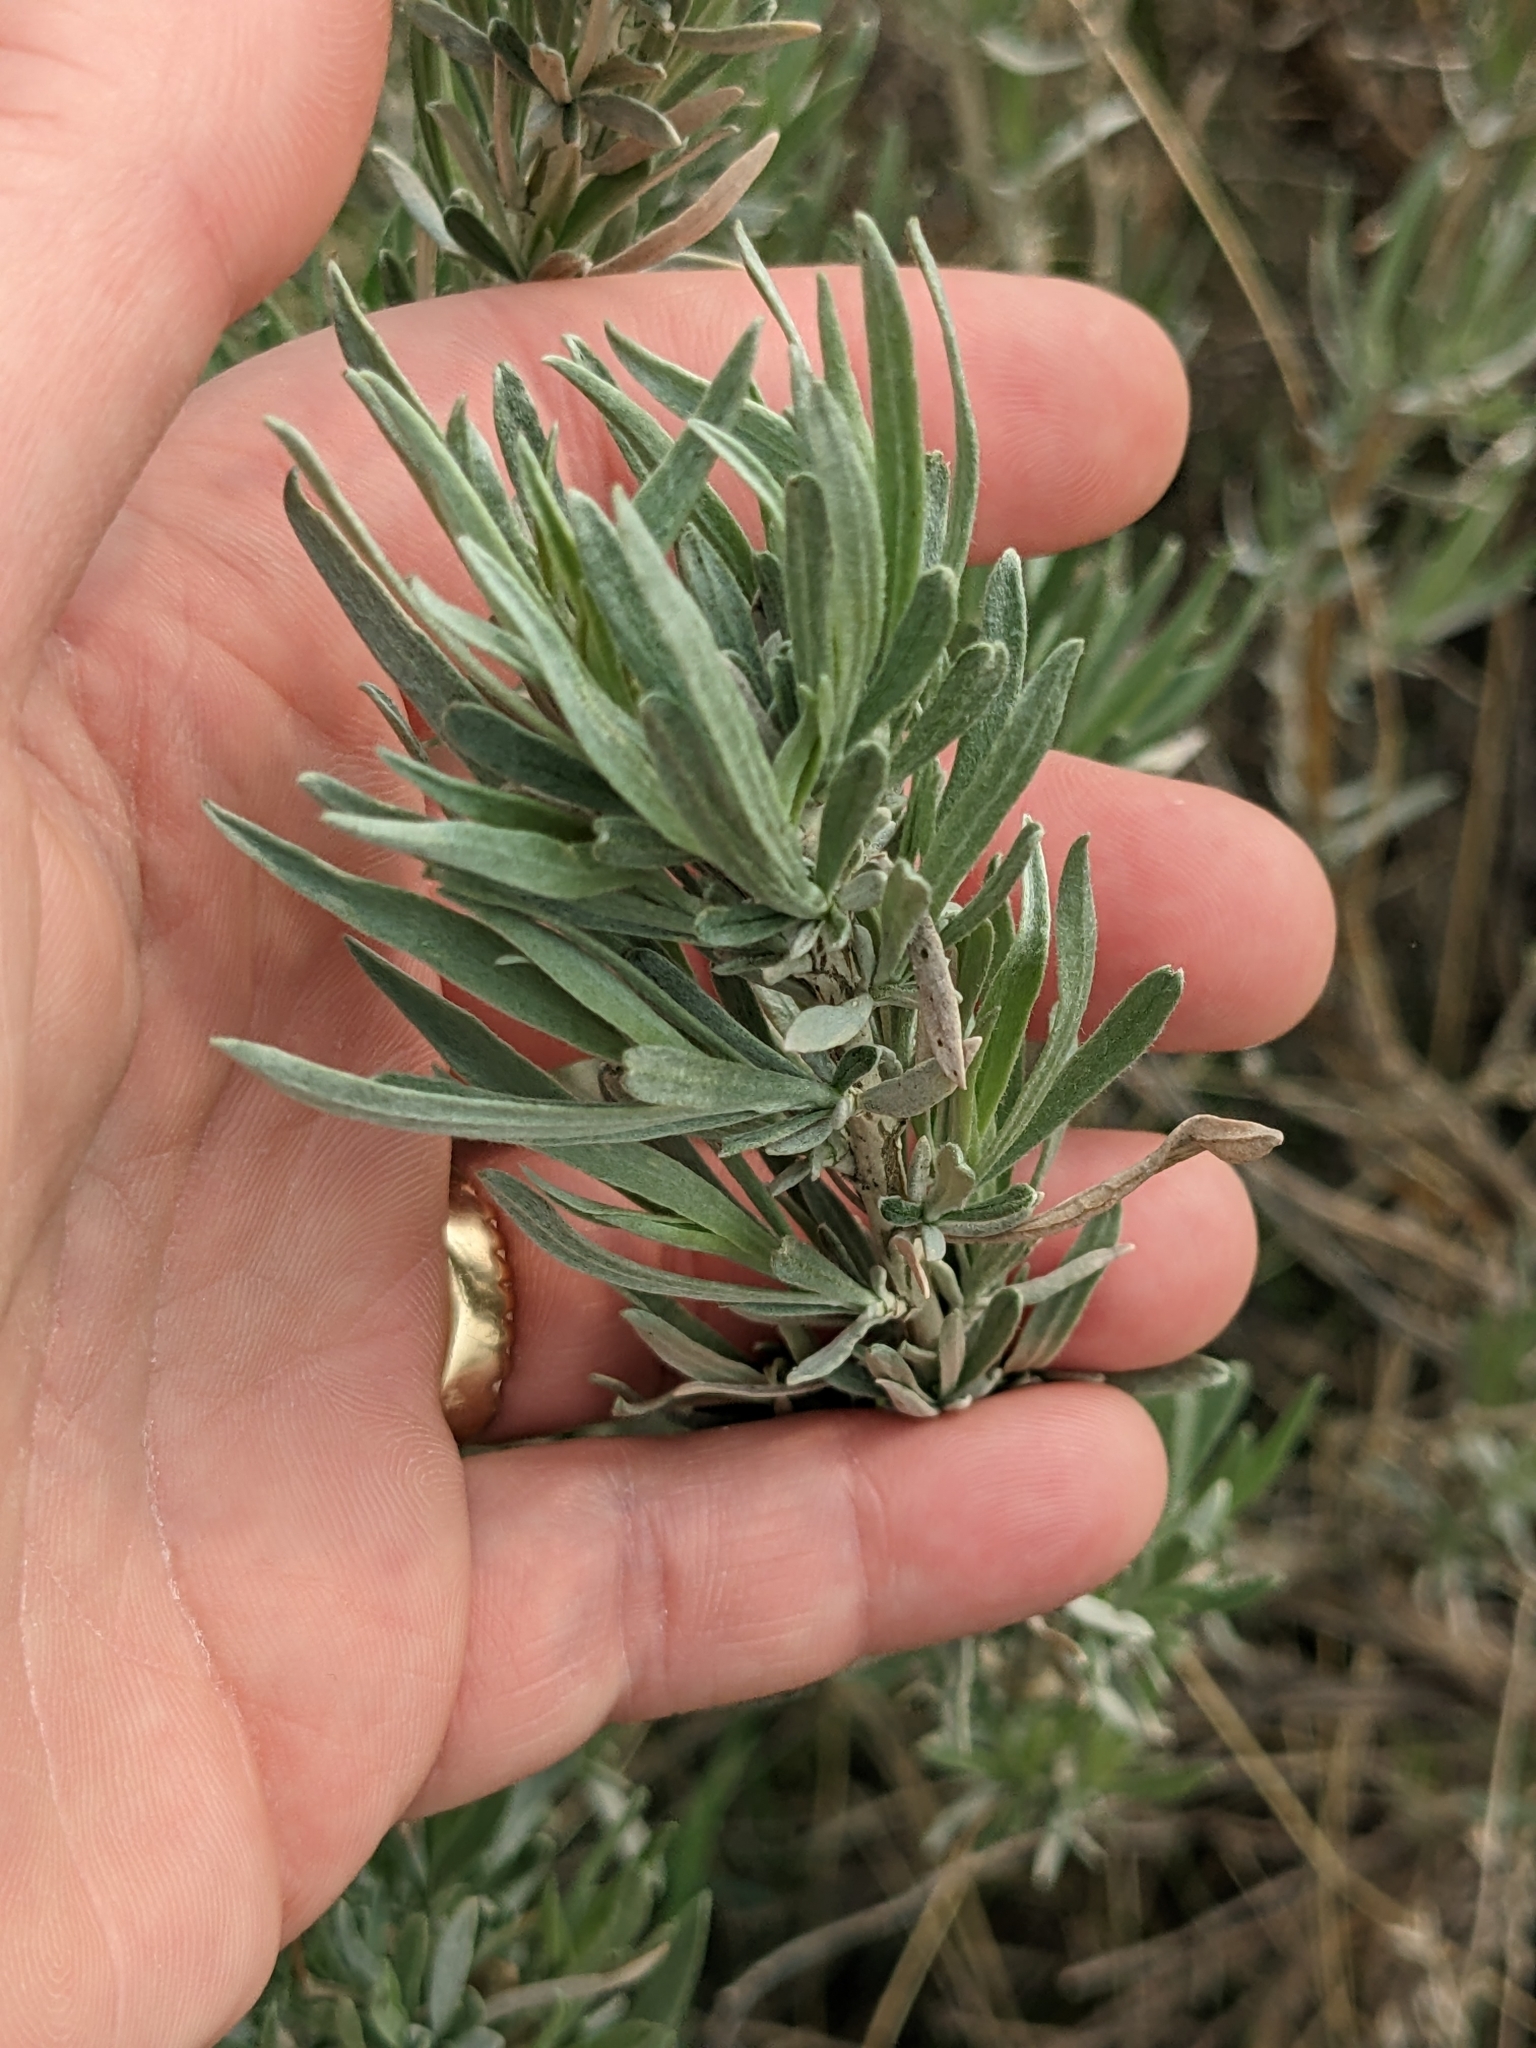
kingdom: Plantae
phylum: Tracheophyta
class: Magnoliopsida
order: Asterales
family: Asteraceae
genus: Artemisia
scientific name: Artemisia cana
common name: Silver sagebrush
